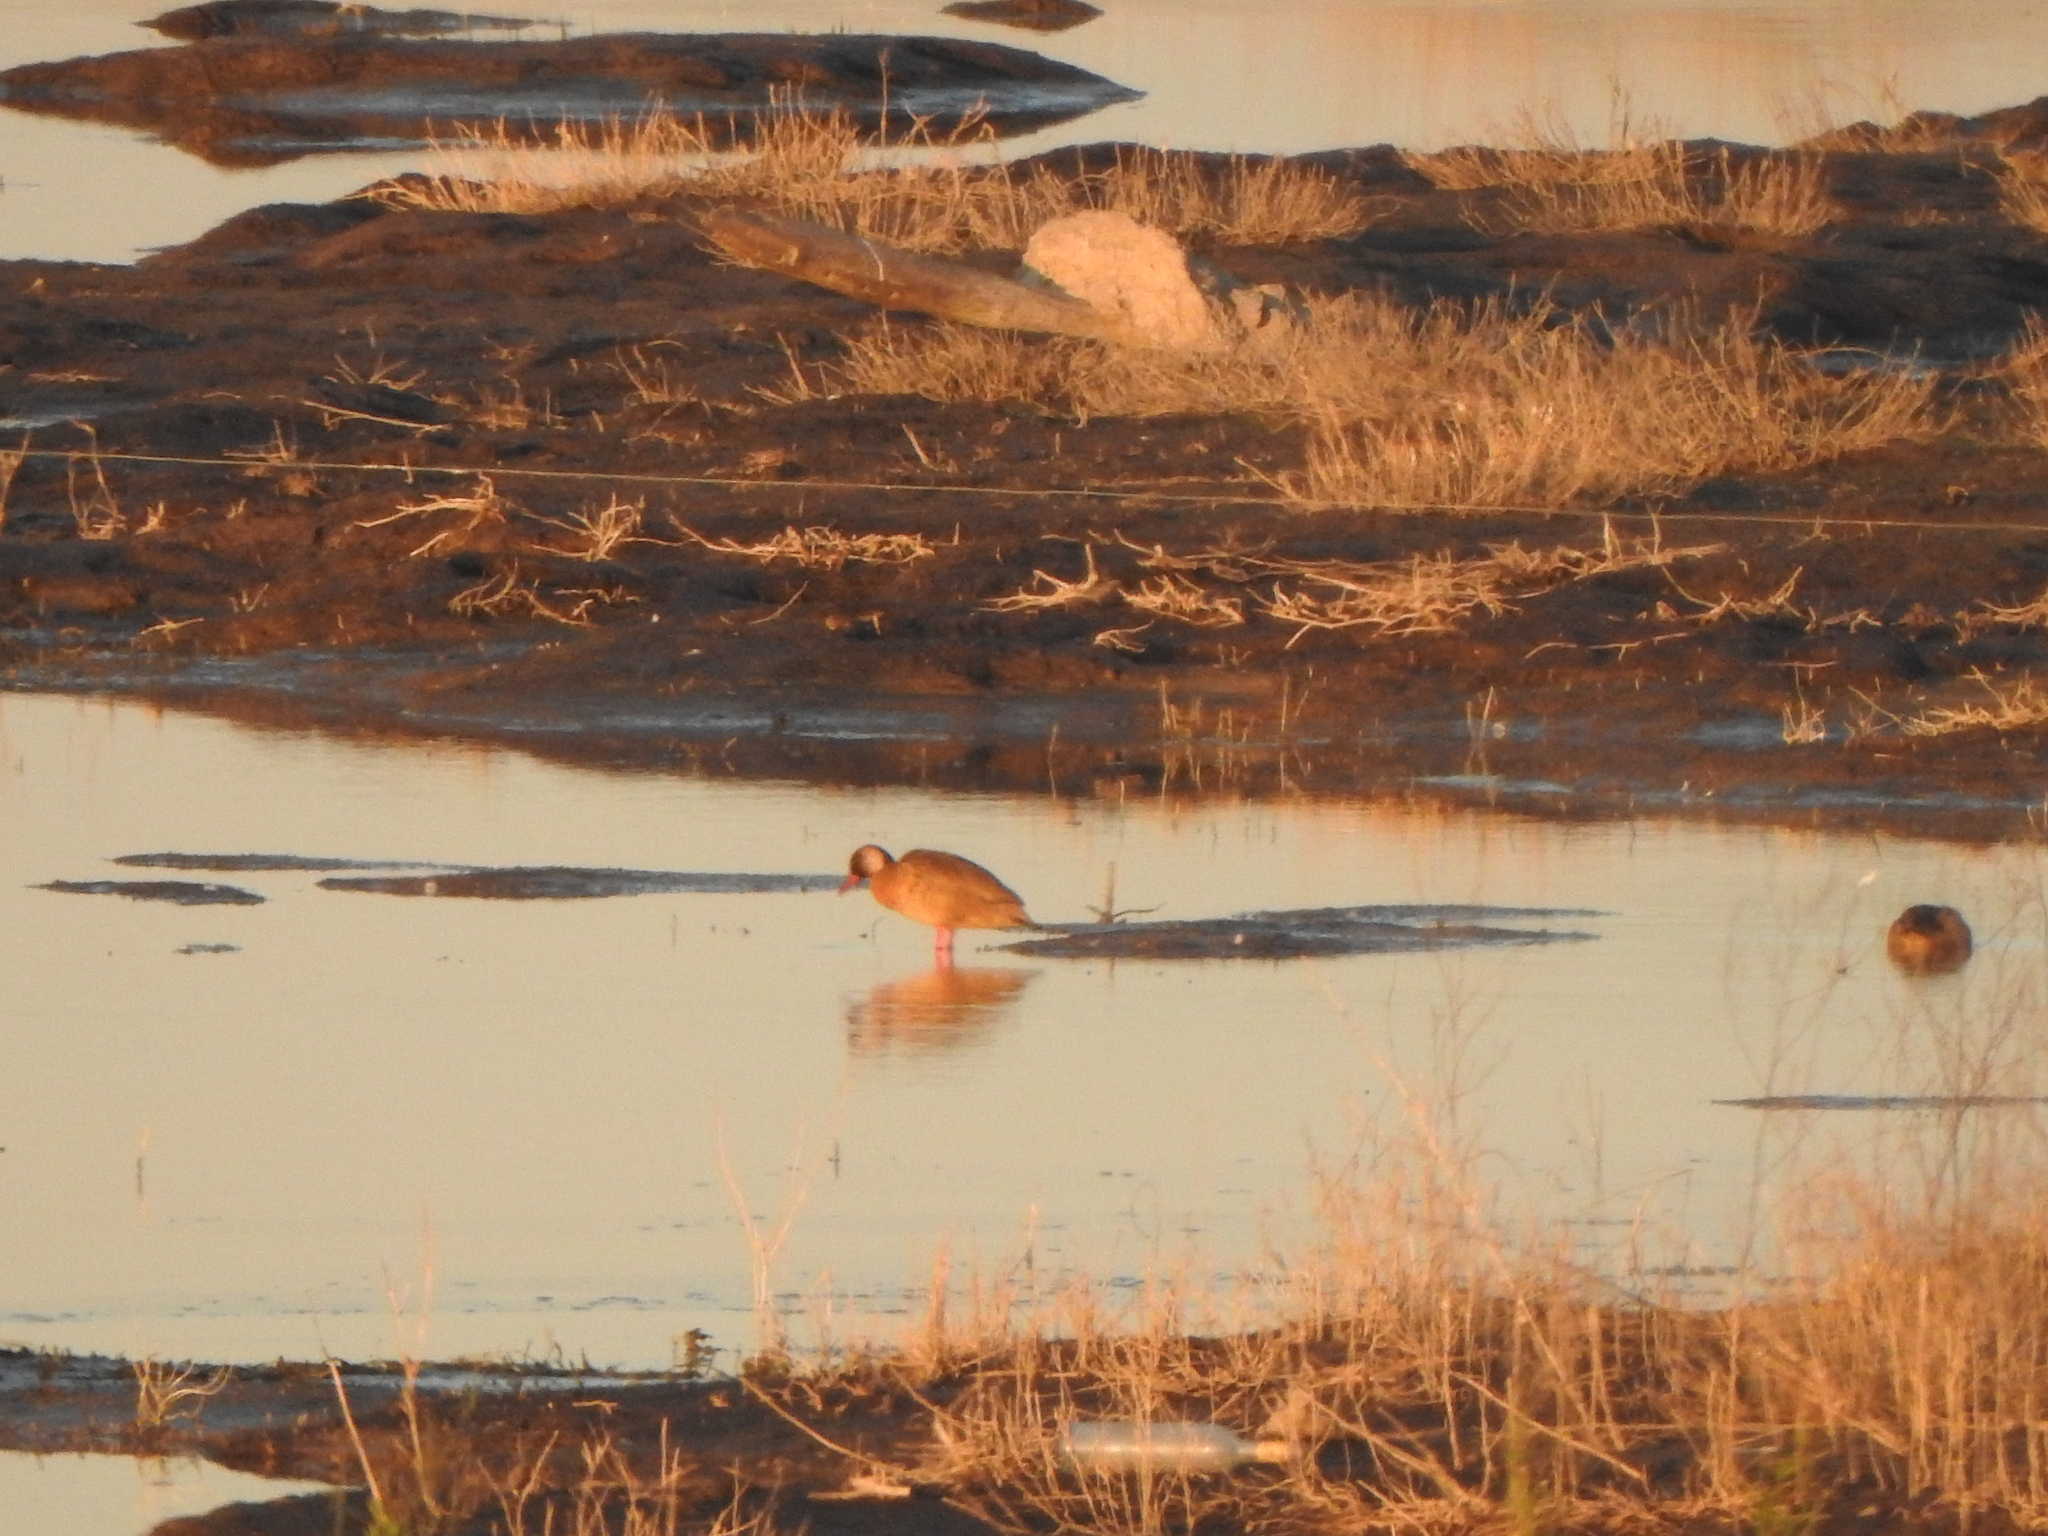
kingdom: Animalia
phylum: Chordata
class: Aves
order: Anseriformes
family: Anatidae
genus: Amazonetta
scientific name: Amazonetta brasiliensis
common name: Brazilian teal
